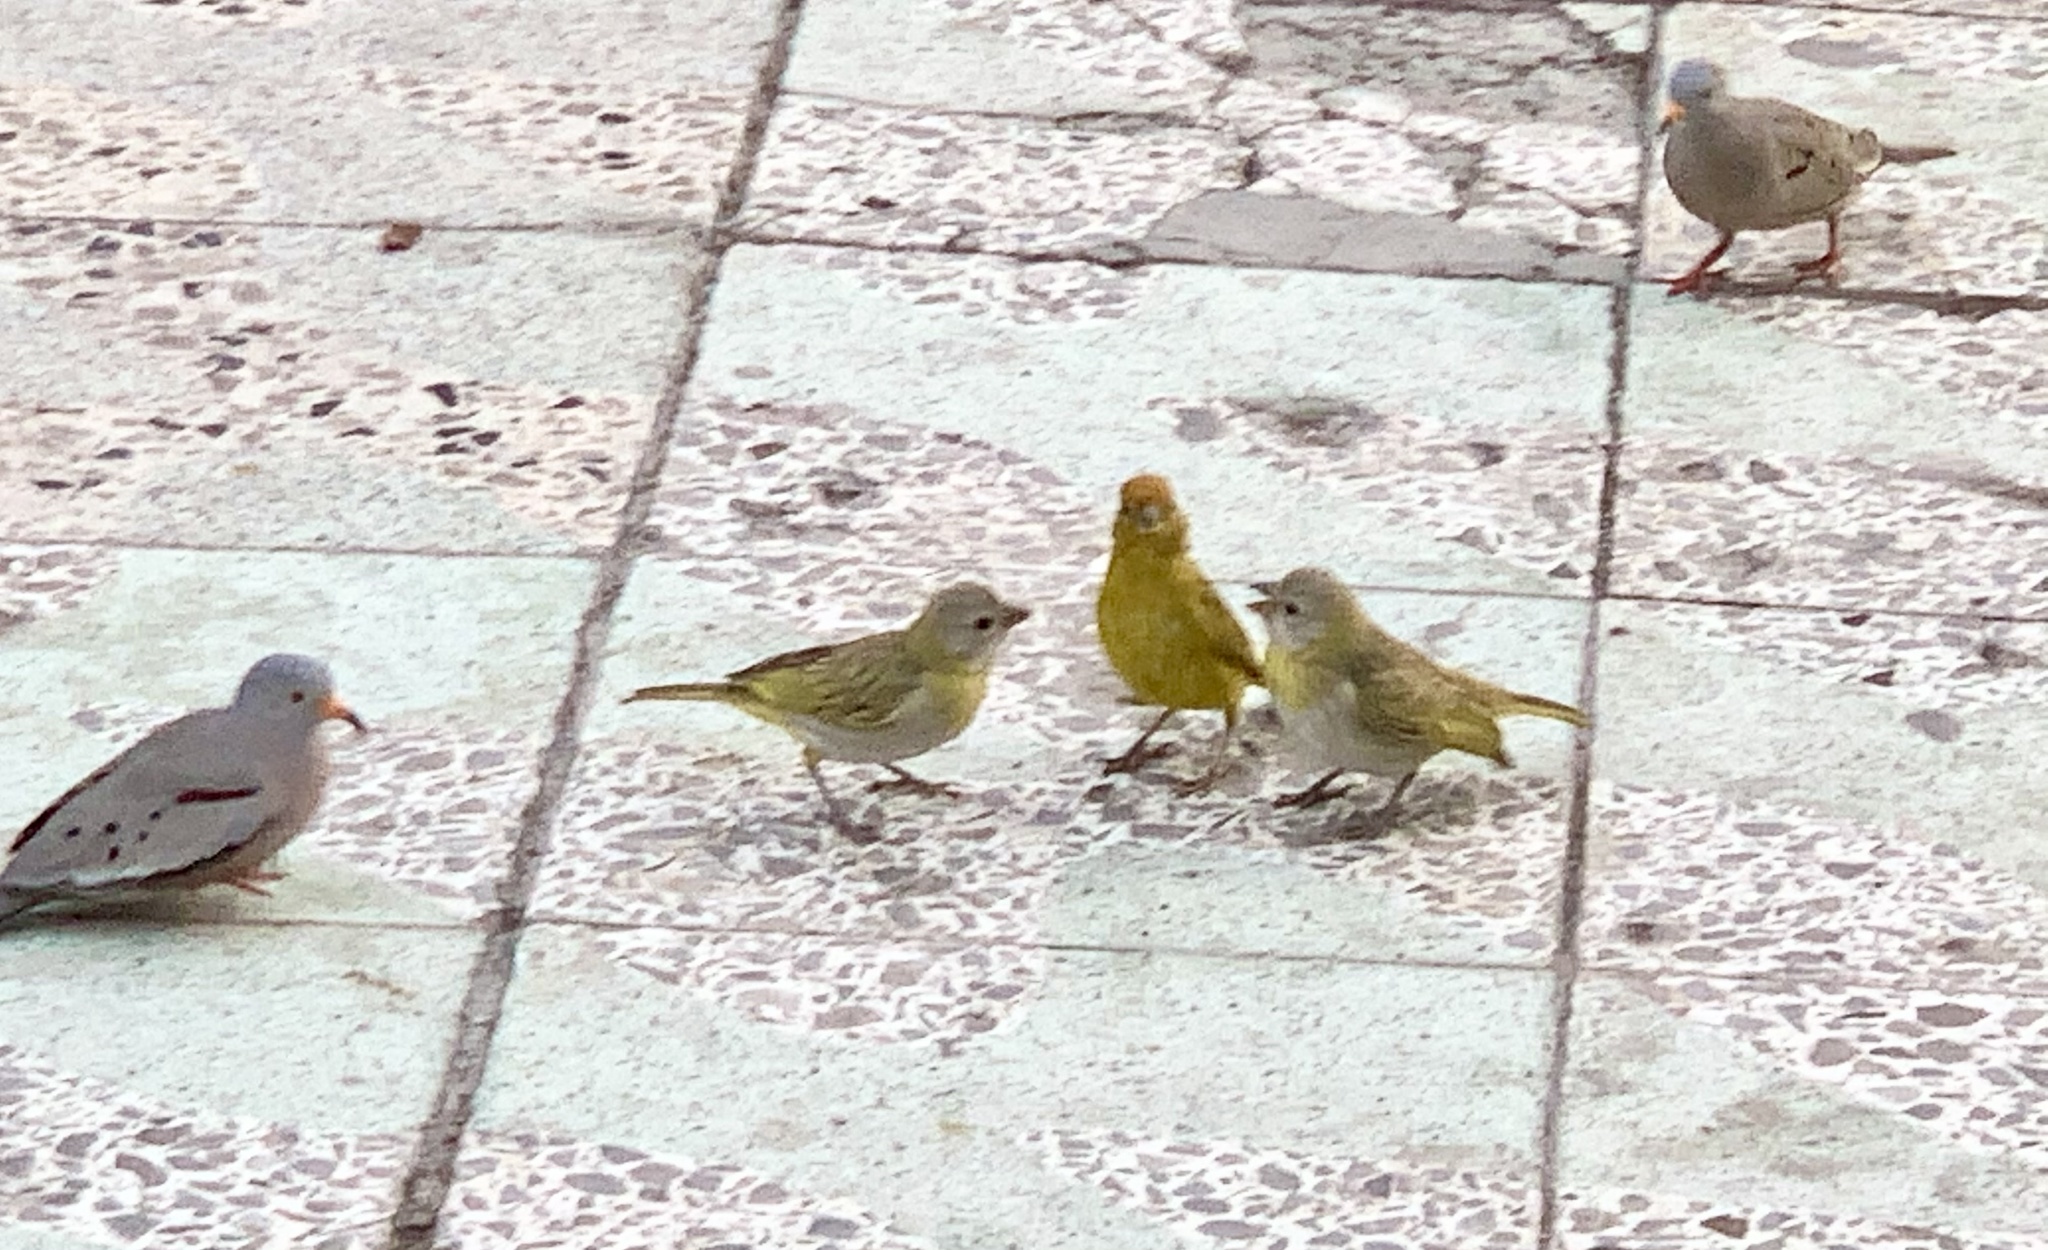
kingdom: Animalia
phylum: Chordata
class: Aves
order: Passeriformes
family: Thraupidae
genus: Sicalis
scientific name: Sicalis flaveola
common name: Saffron finch
